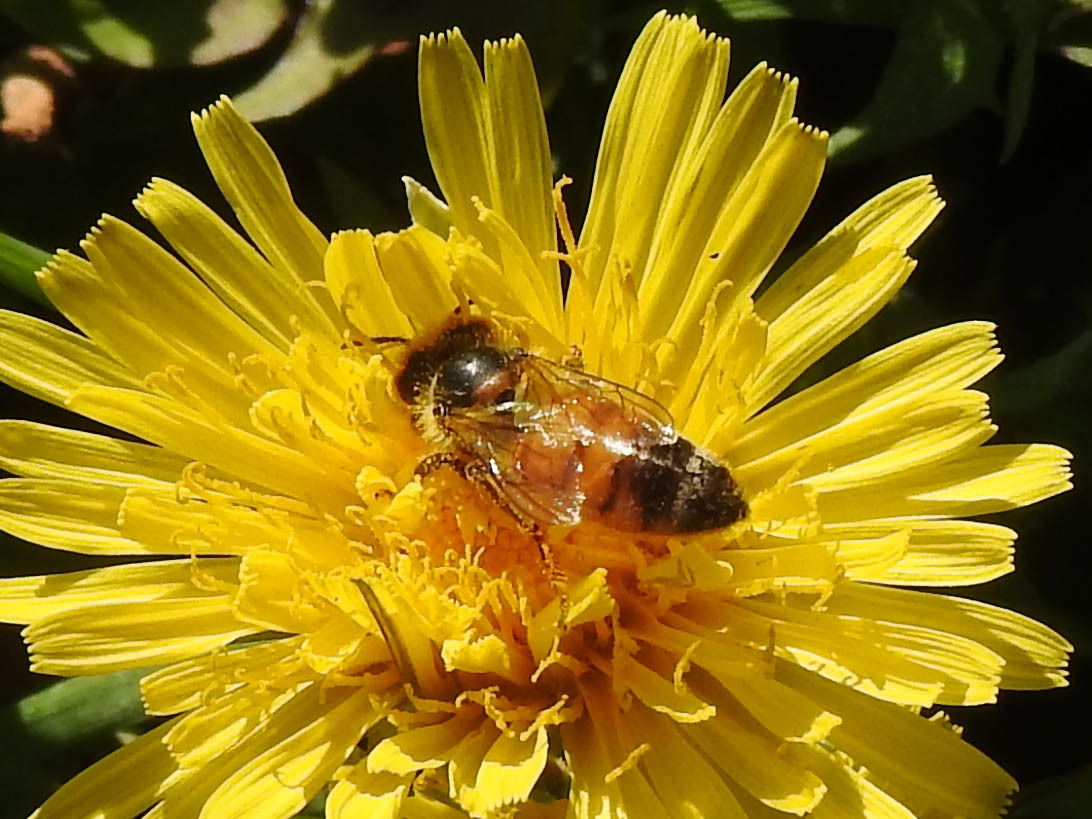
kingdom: Animalia
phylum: Arthropoda
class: Insecta
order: Hymenoptera
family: Apidae
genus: Apis
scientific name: Apis mellifera
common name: Honey bee
